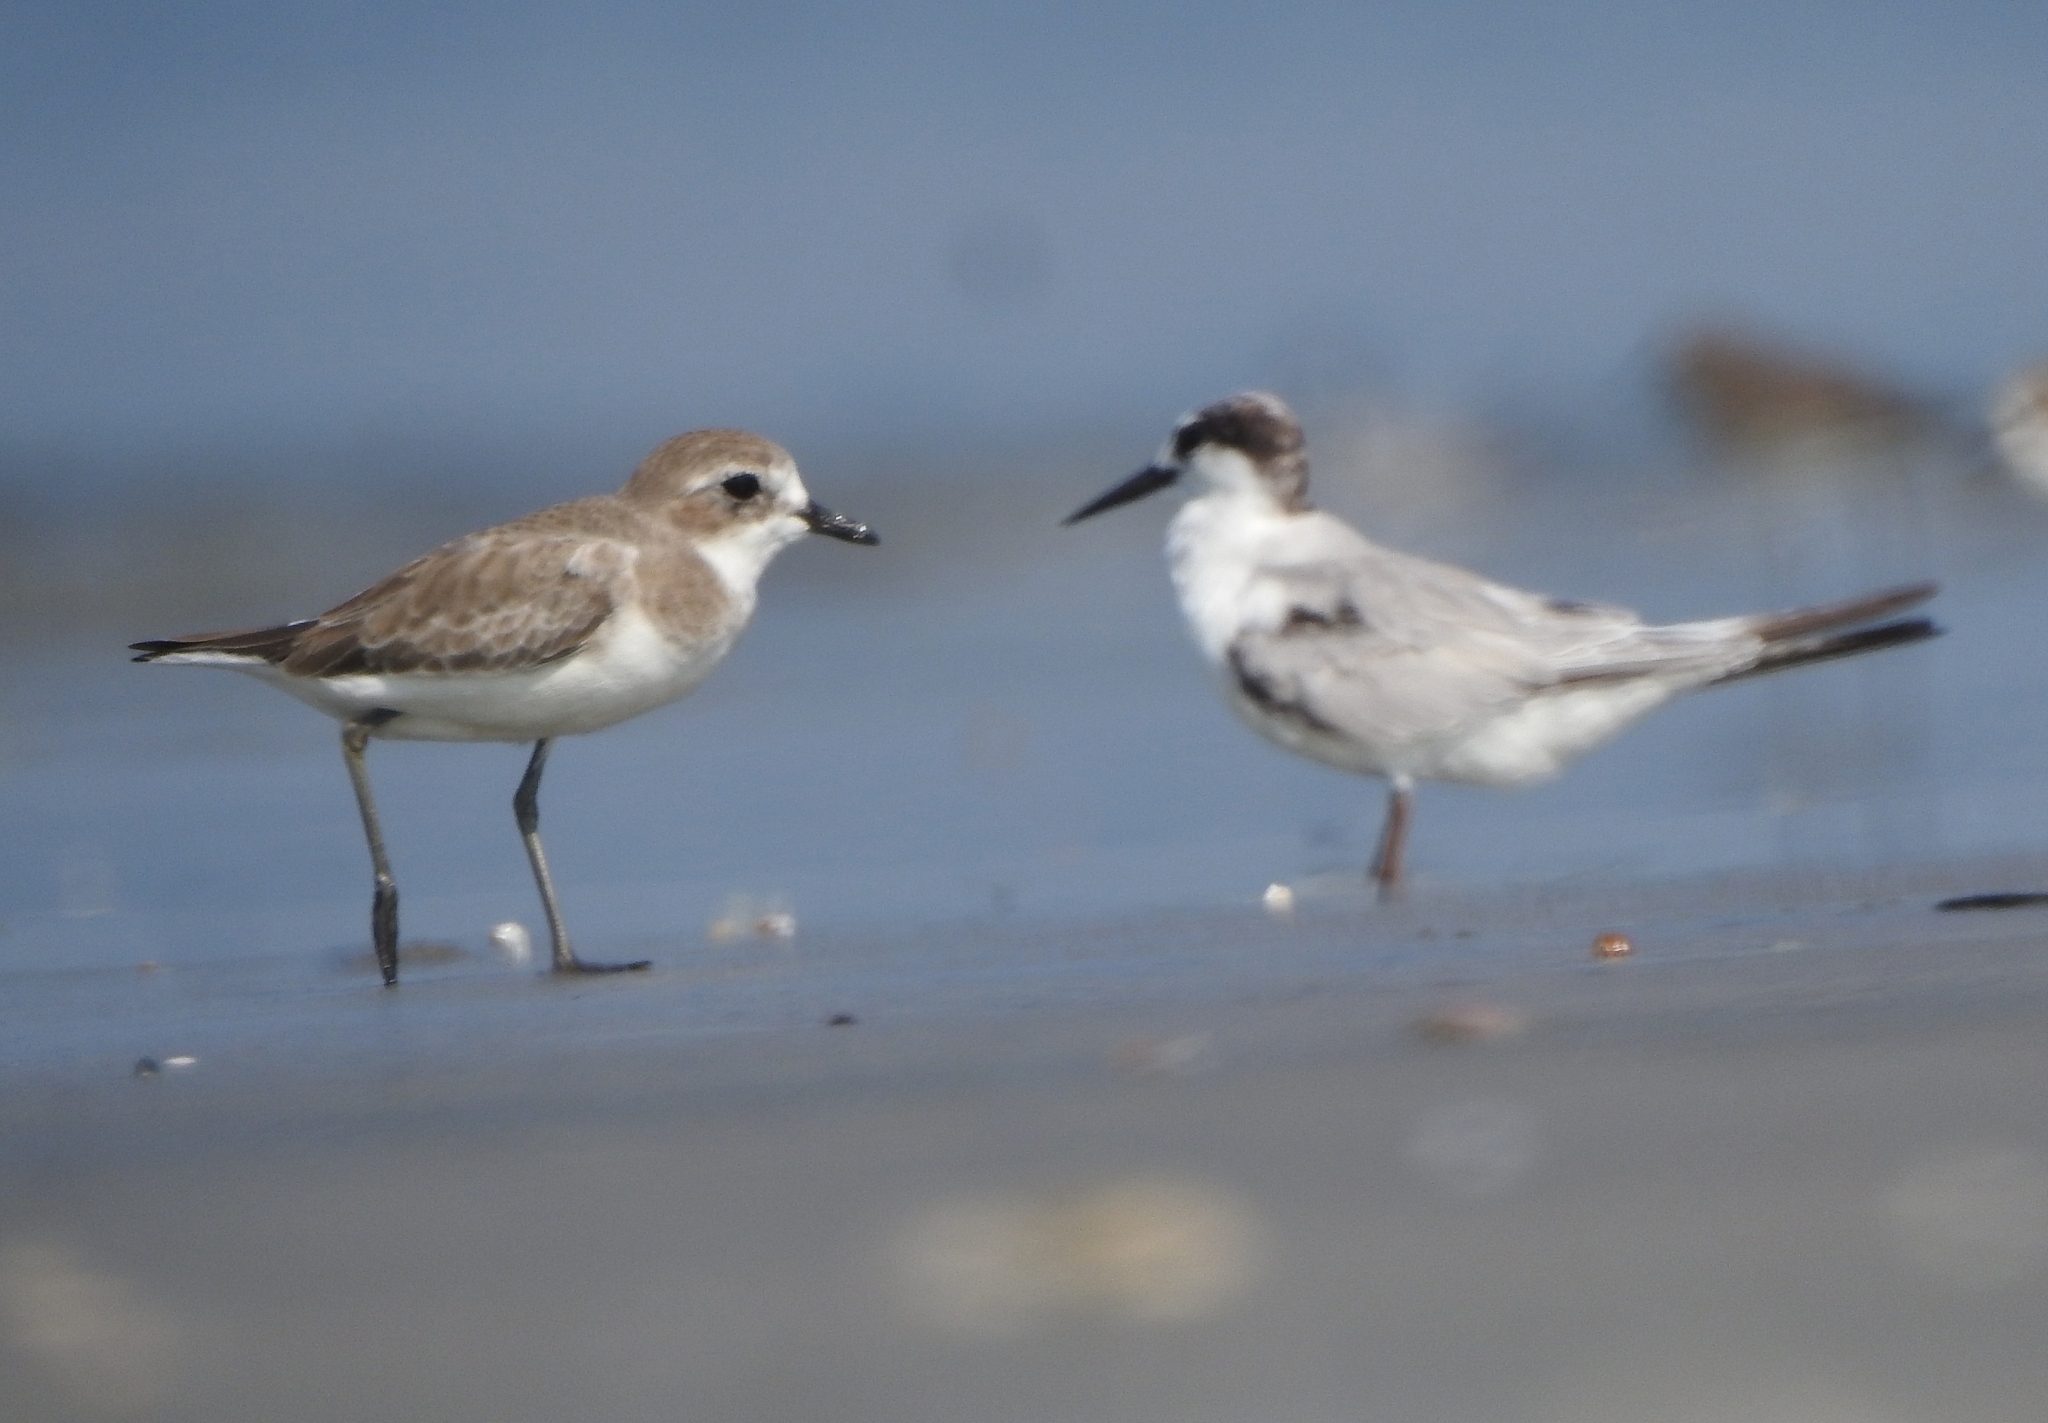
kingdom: Animalia
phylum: Chordata
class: Aves
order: Charadriiformes
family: Charadriidae
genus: Anarhynchus
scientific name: Anarhynchus
